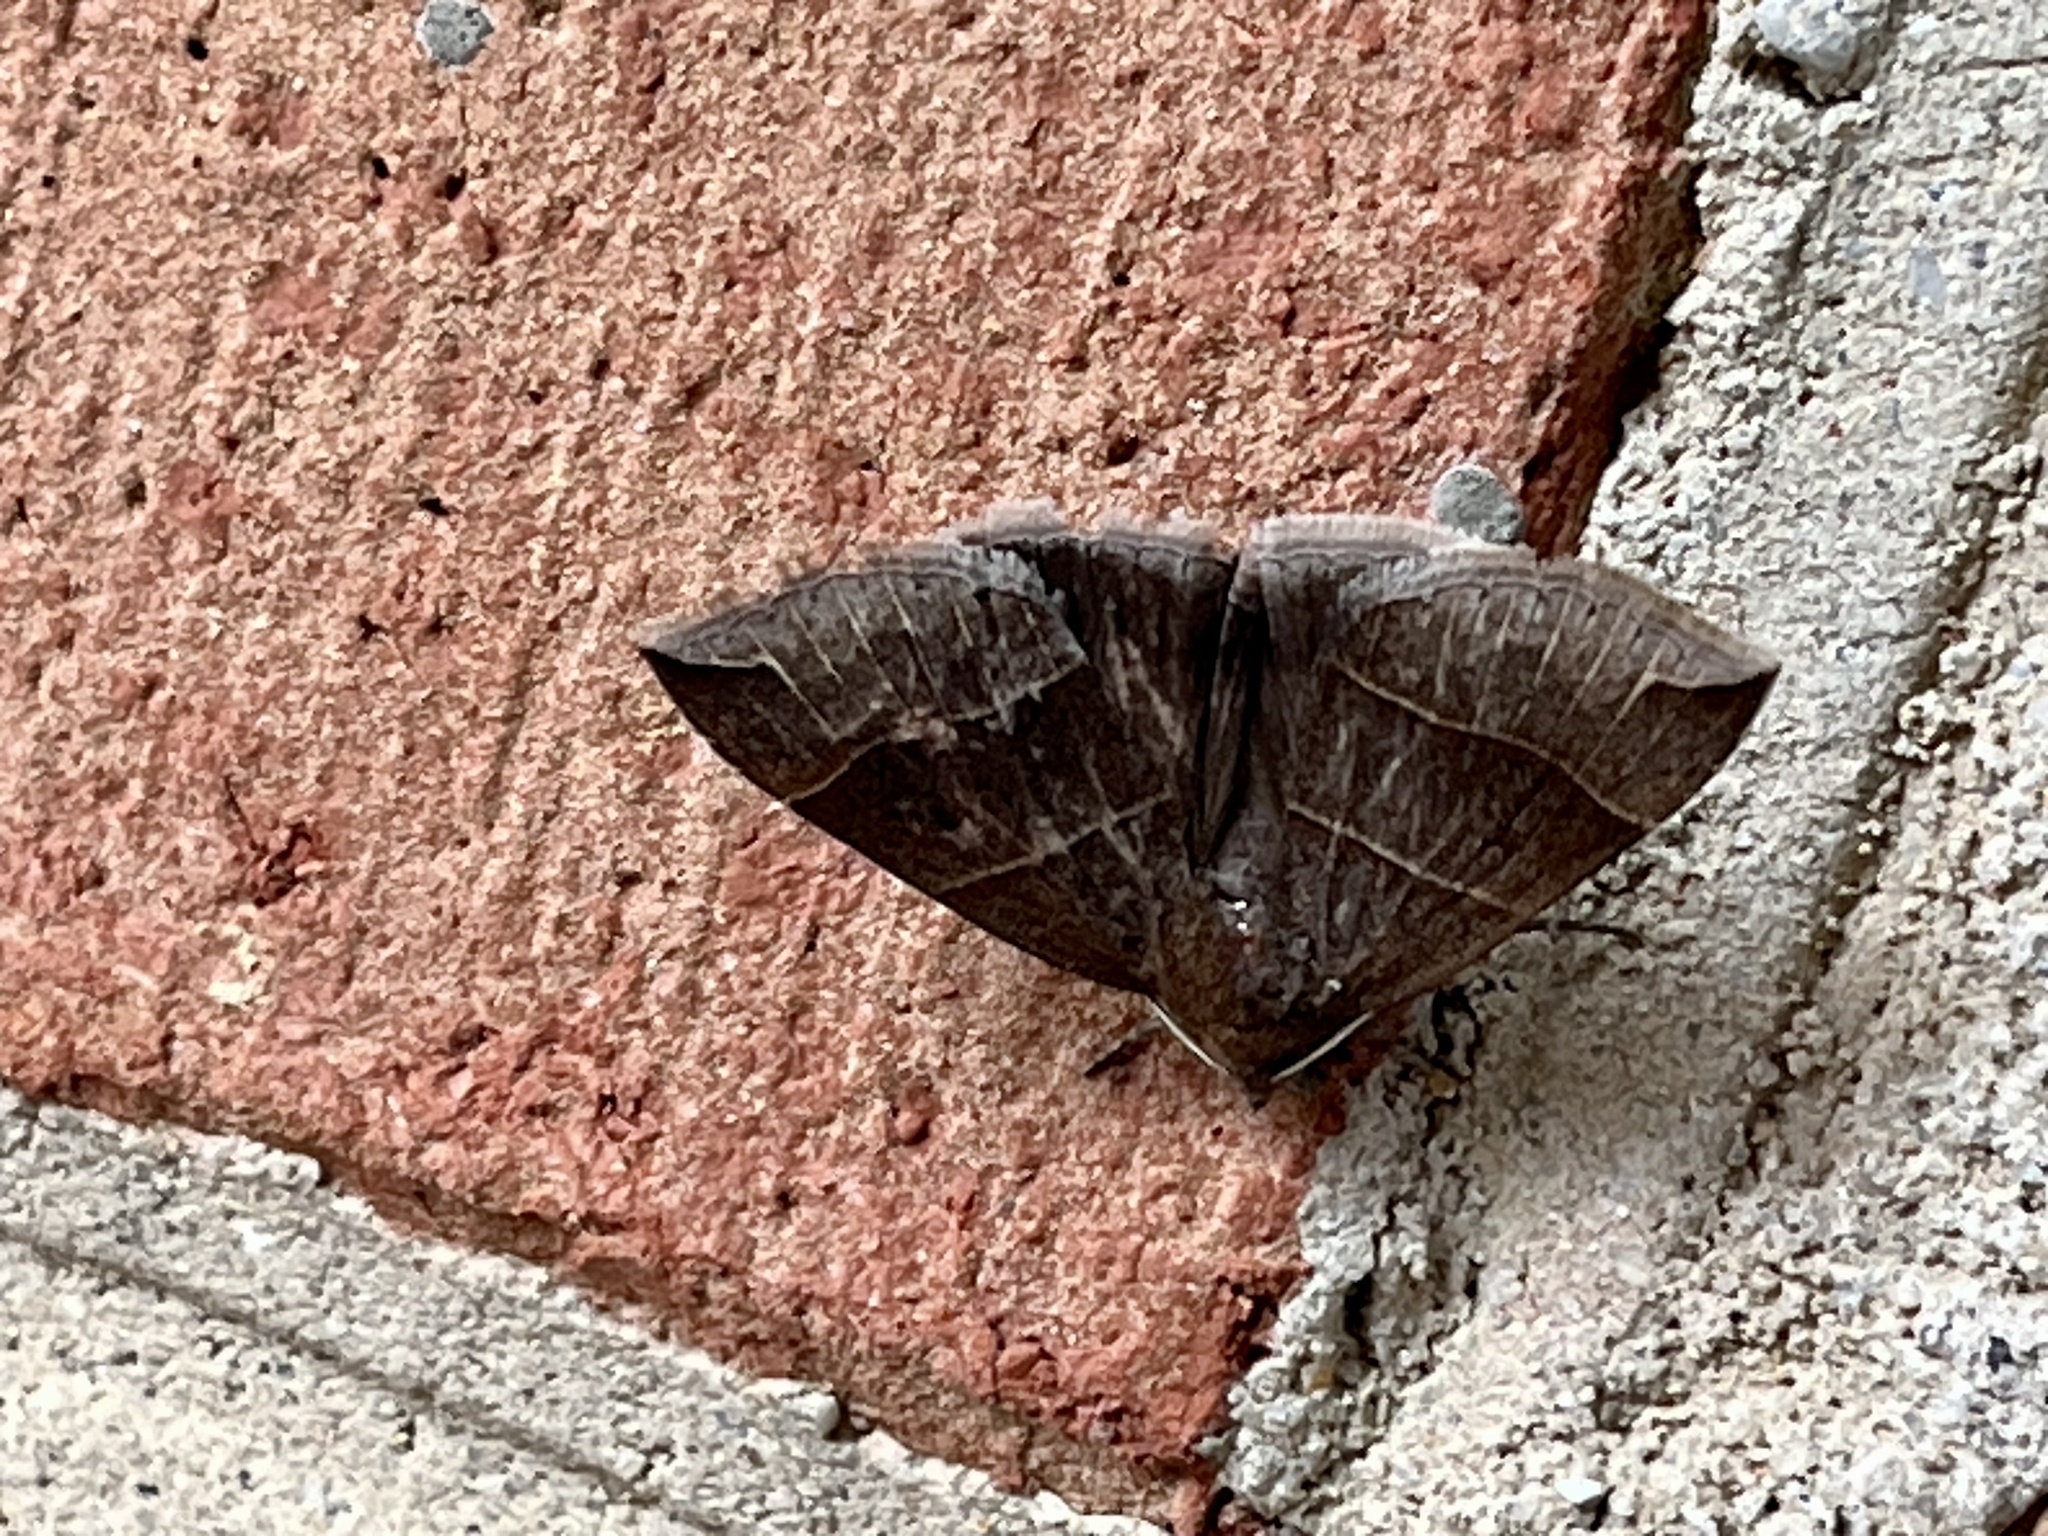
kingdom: Animalia
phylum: Arthropoda
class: Insecta
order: Lepidoptera
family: Erebidae
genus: Parallelia
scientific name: Parallelia bistriaris
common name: Maple looper moth
